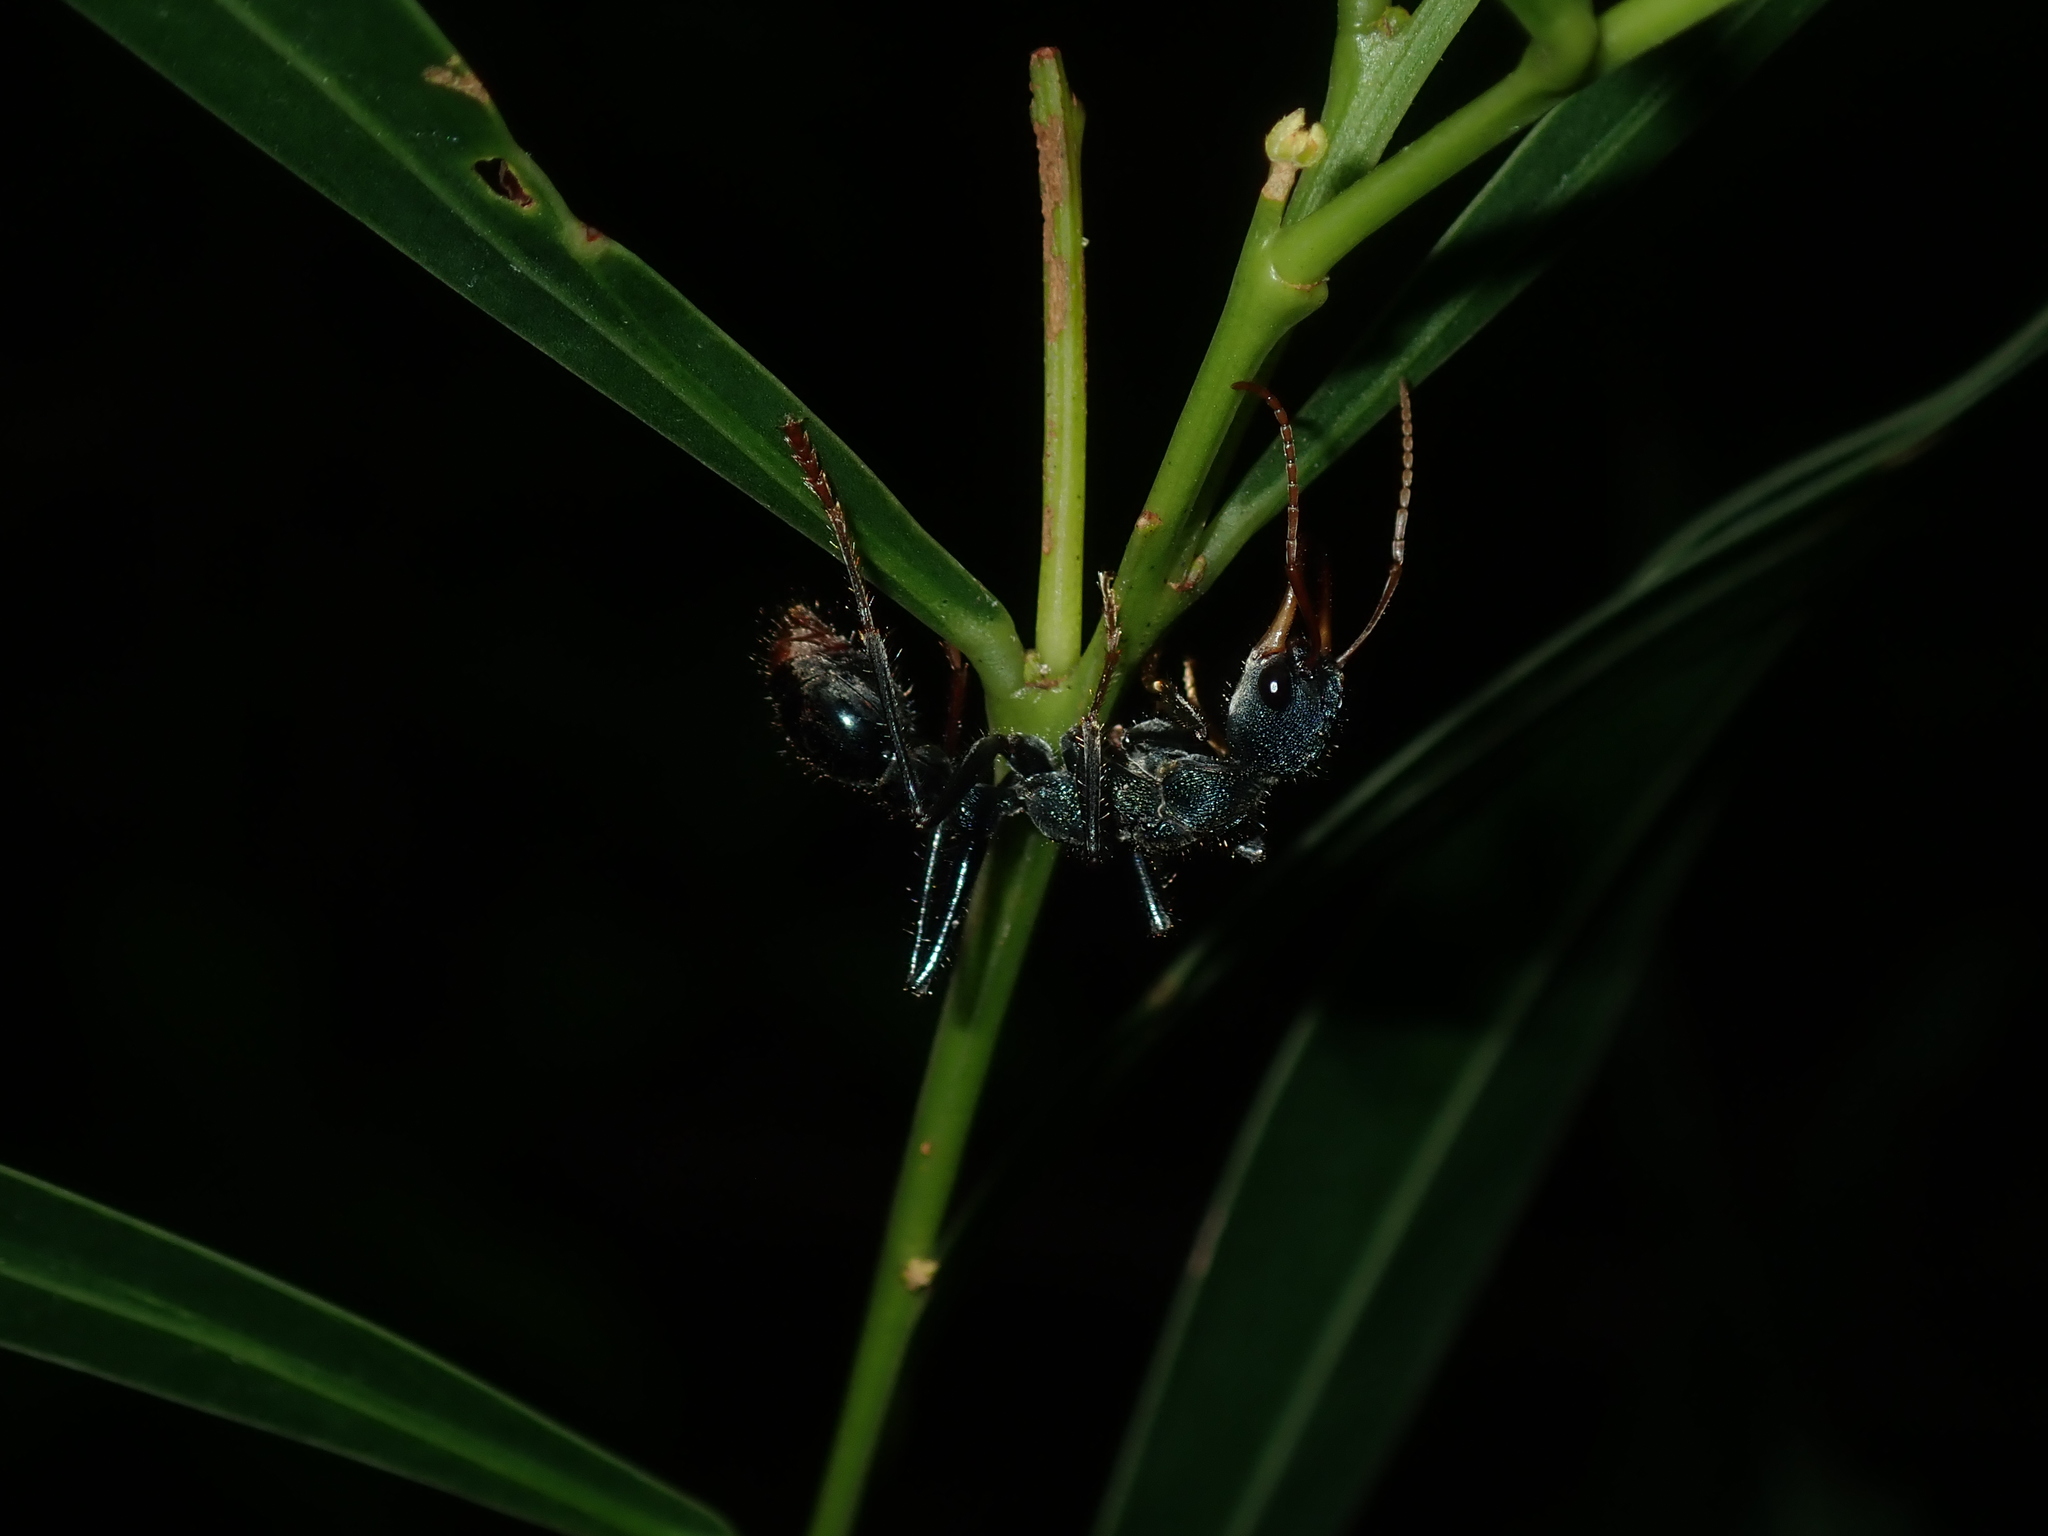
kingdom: Animalia
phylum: Arthropoda
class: Insecta
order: Hymenoptera
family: Formicidae
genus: Myrmecia
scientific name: Myrmecia tarsata
